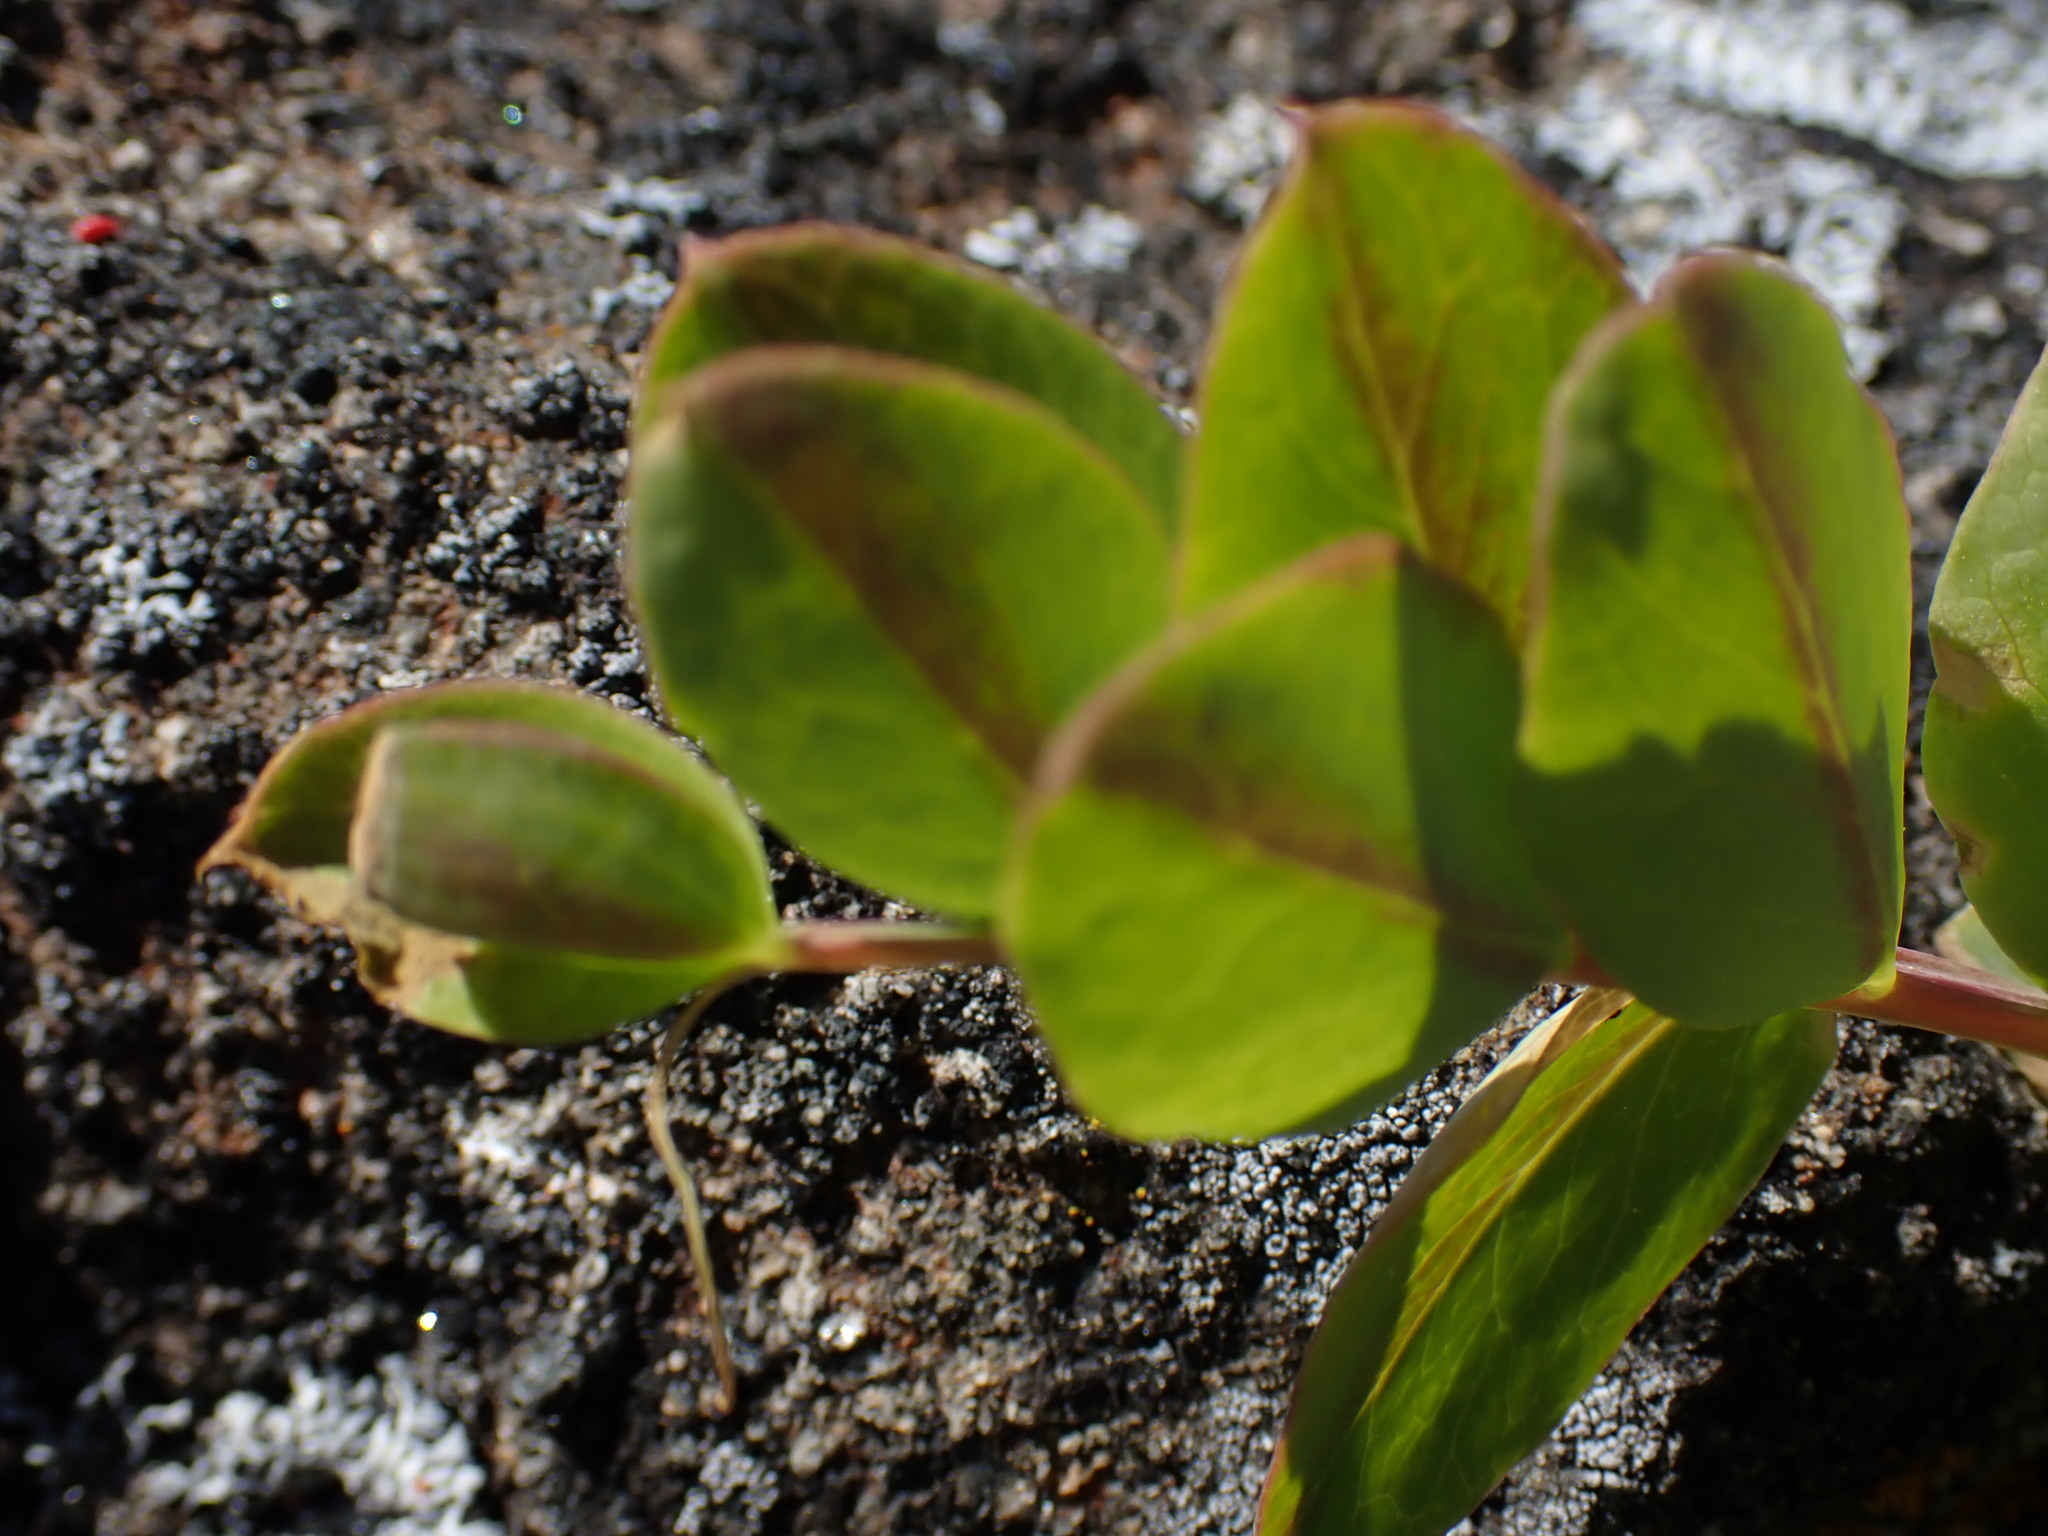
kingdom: Plantae
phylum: Tracheophyta
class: Magnoliopsida
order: Fabales
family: Fabaceae
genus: Lathyrus
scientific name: Lathyrus japonicus
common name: Sea pea
